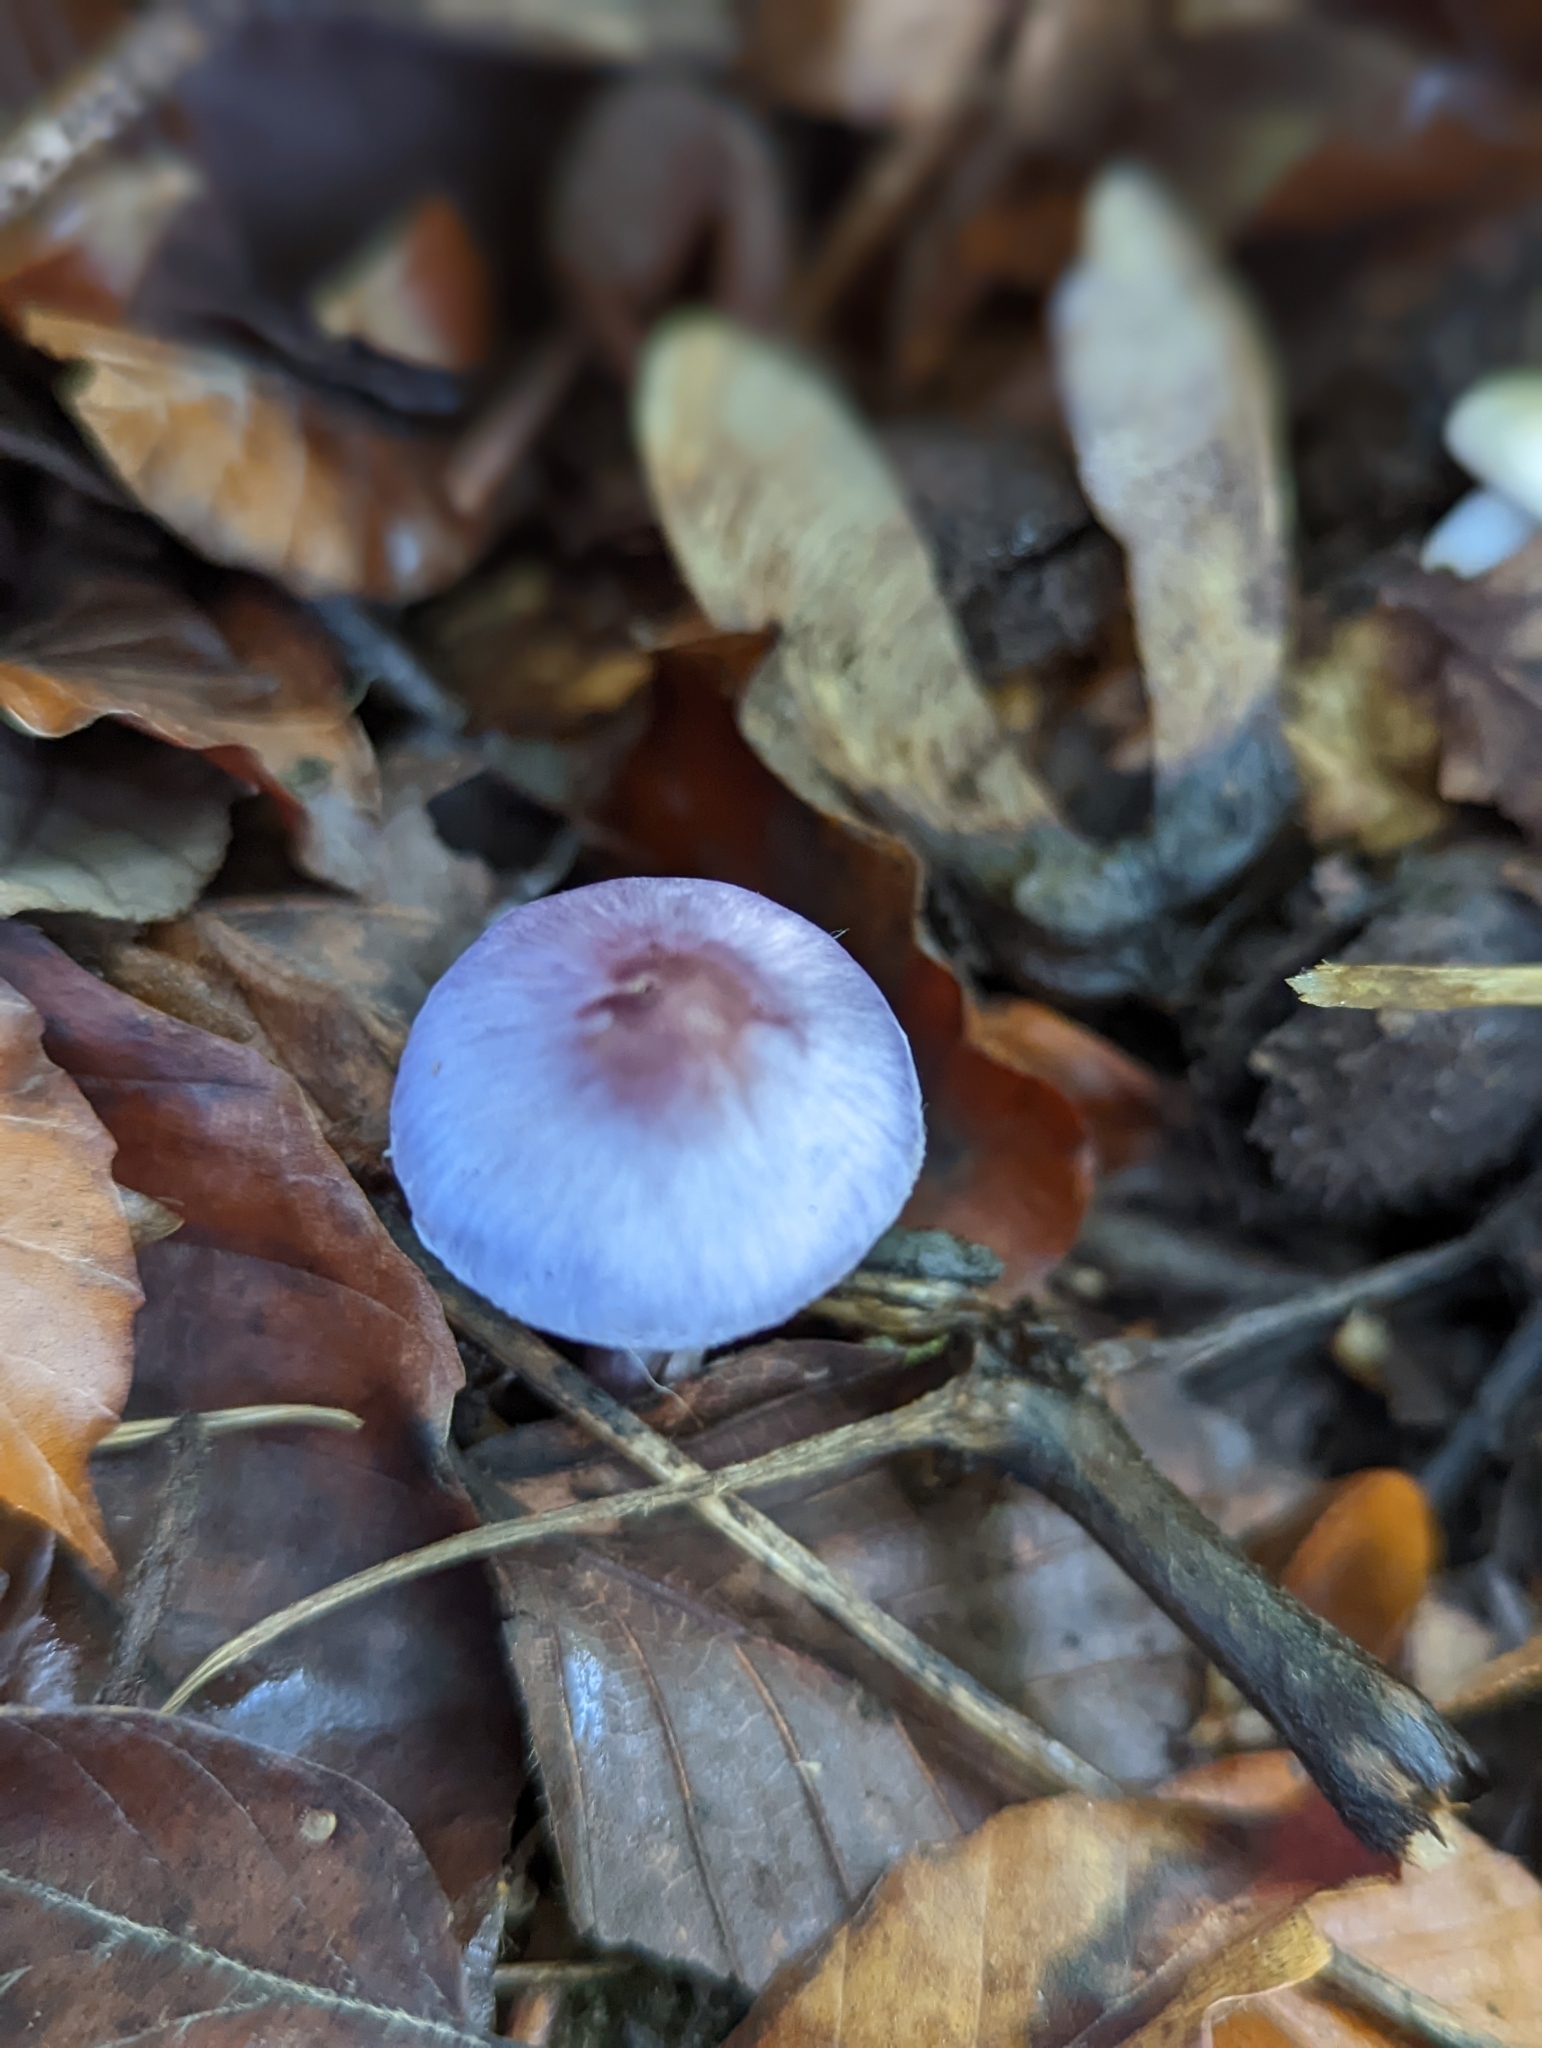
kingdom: Fungi
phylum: Basidiomycota
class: Agaricomycetes
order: Agaricales
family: Inocybaceae
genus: Inocybe
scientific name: Inocybe geophylla
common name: White fibrecap
